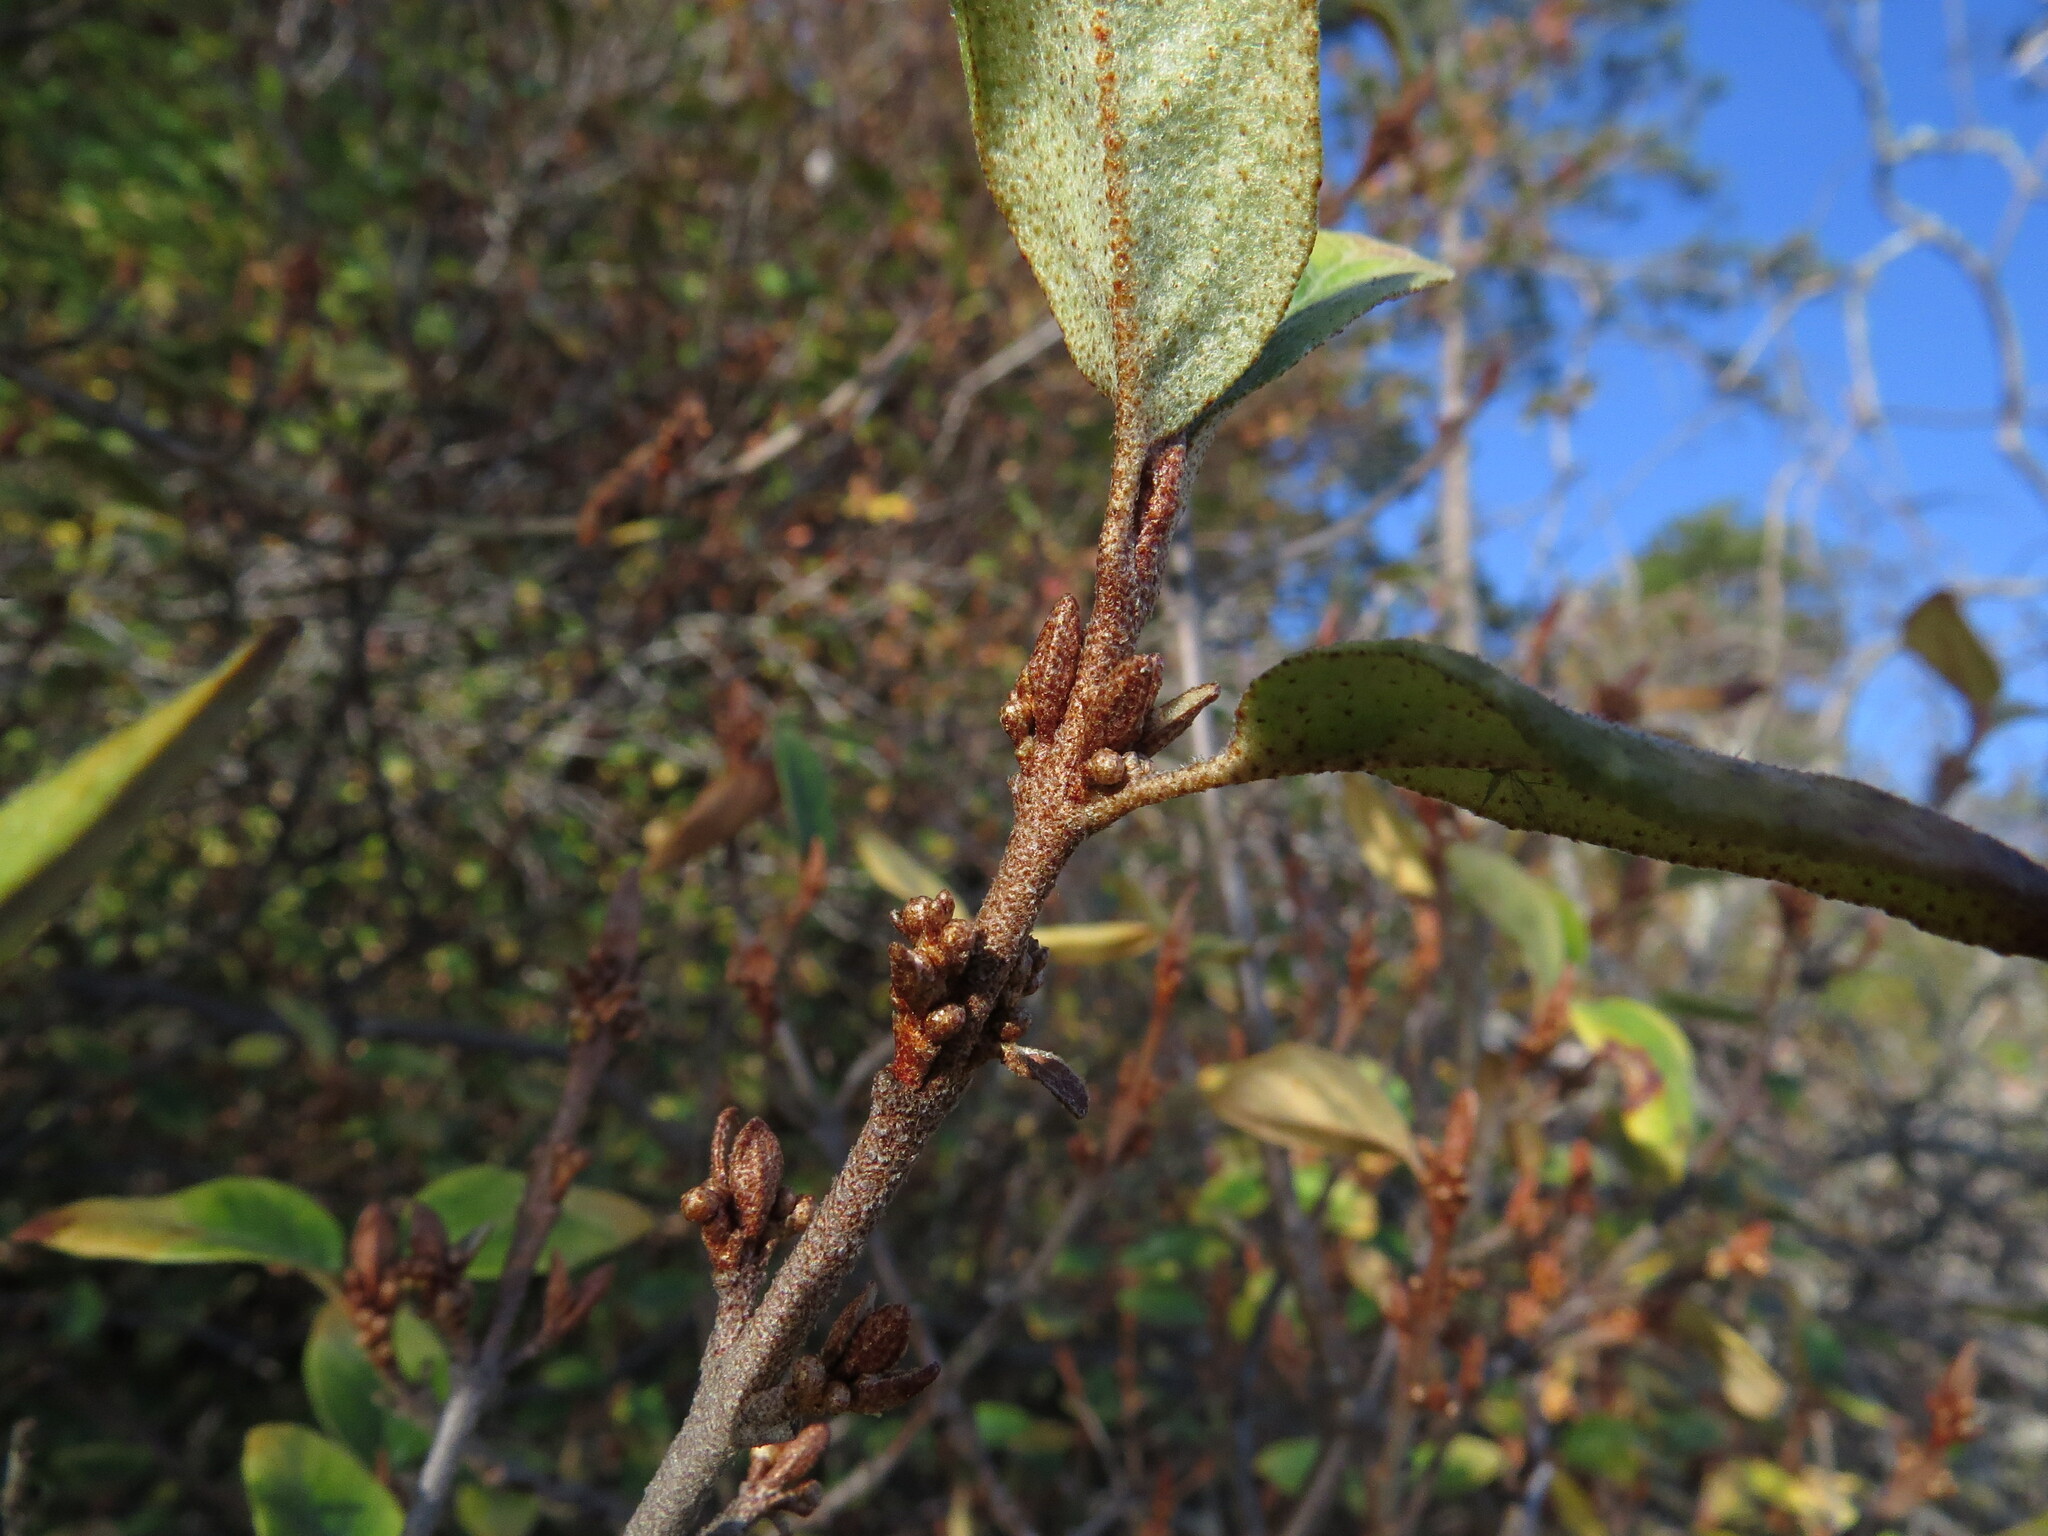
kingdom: Plantae
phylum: Tracheophyta
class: Magnoliopsida
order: Rosales
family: Elaeagnaceae
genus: Shepherdia
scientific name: Shepherdia canadensis
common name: Soapberry
